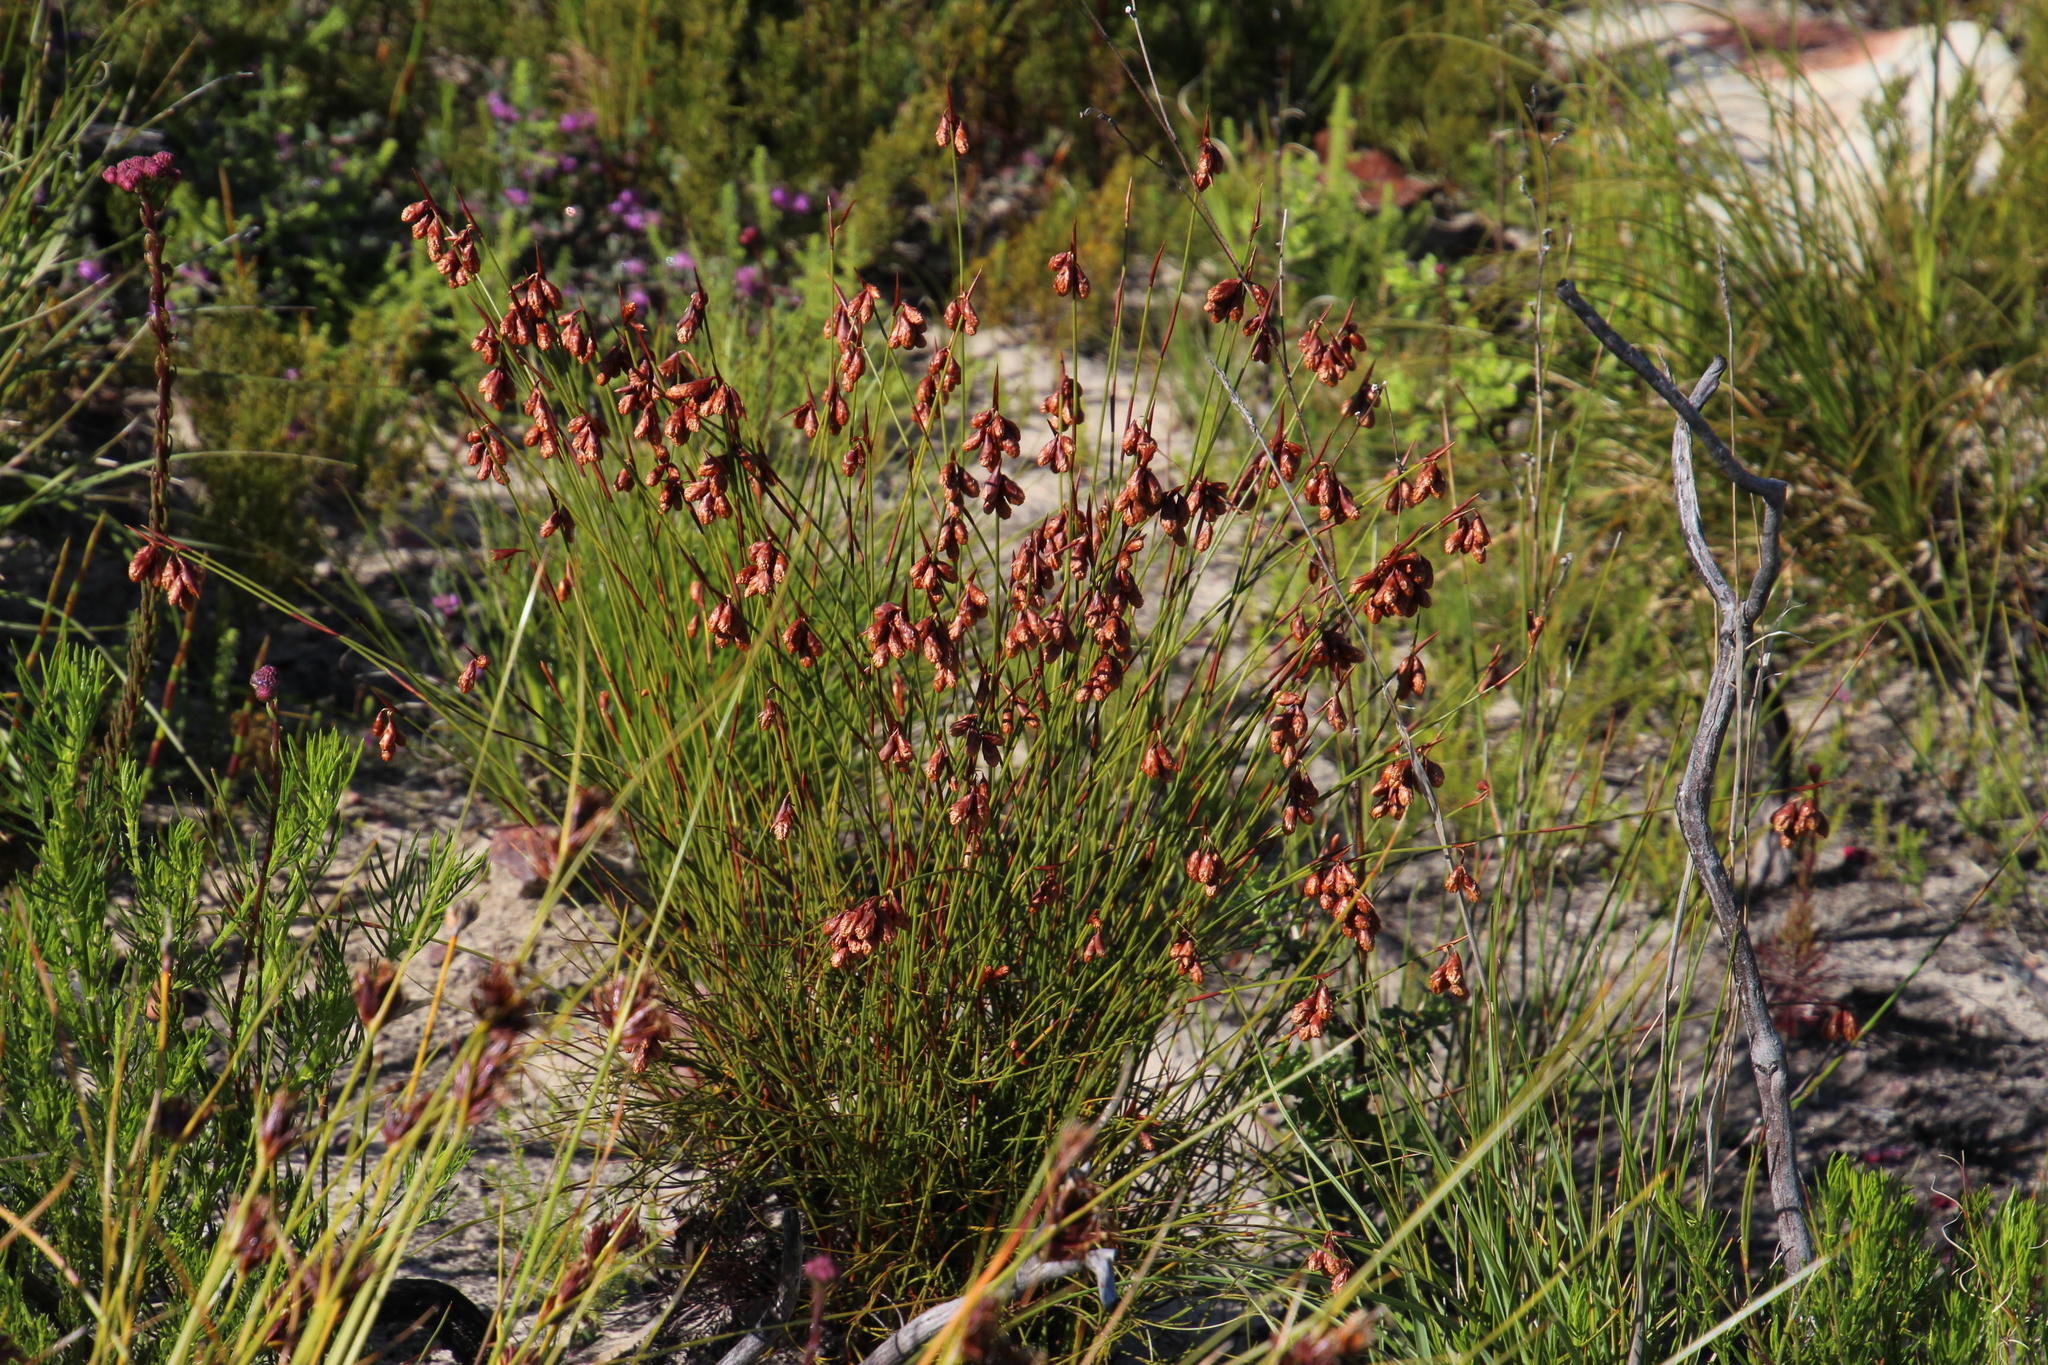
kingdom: Plantae
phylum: Tracheophyta
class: Liliopsida
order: Poales
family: Restionaceae
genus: Staberoha
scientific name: Staberoha distachyos
